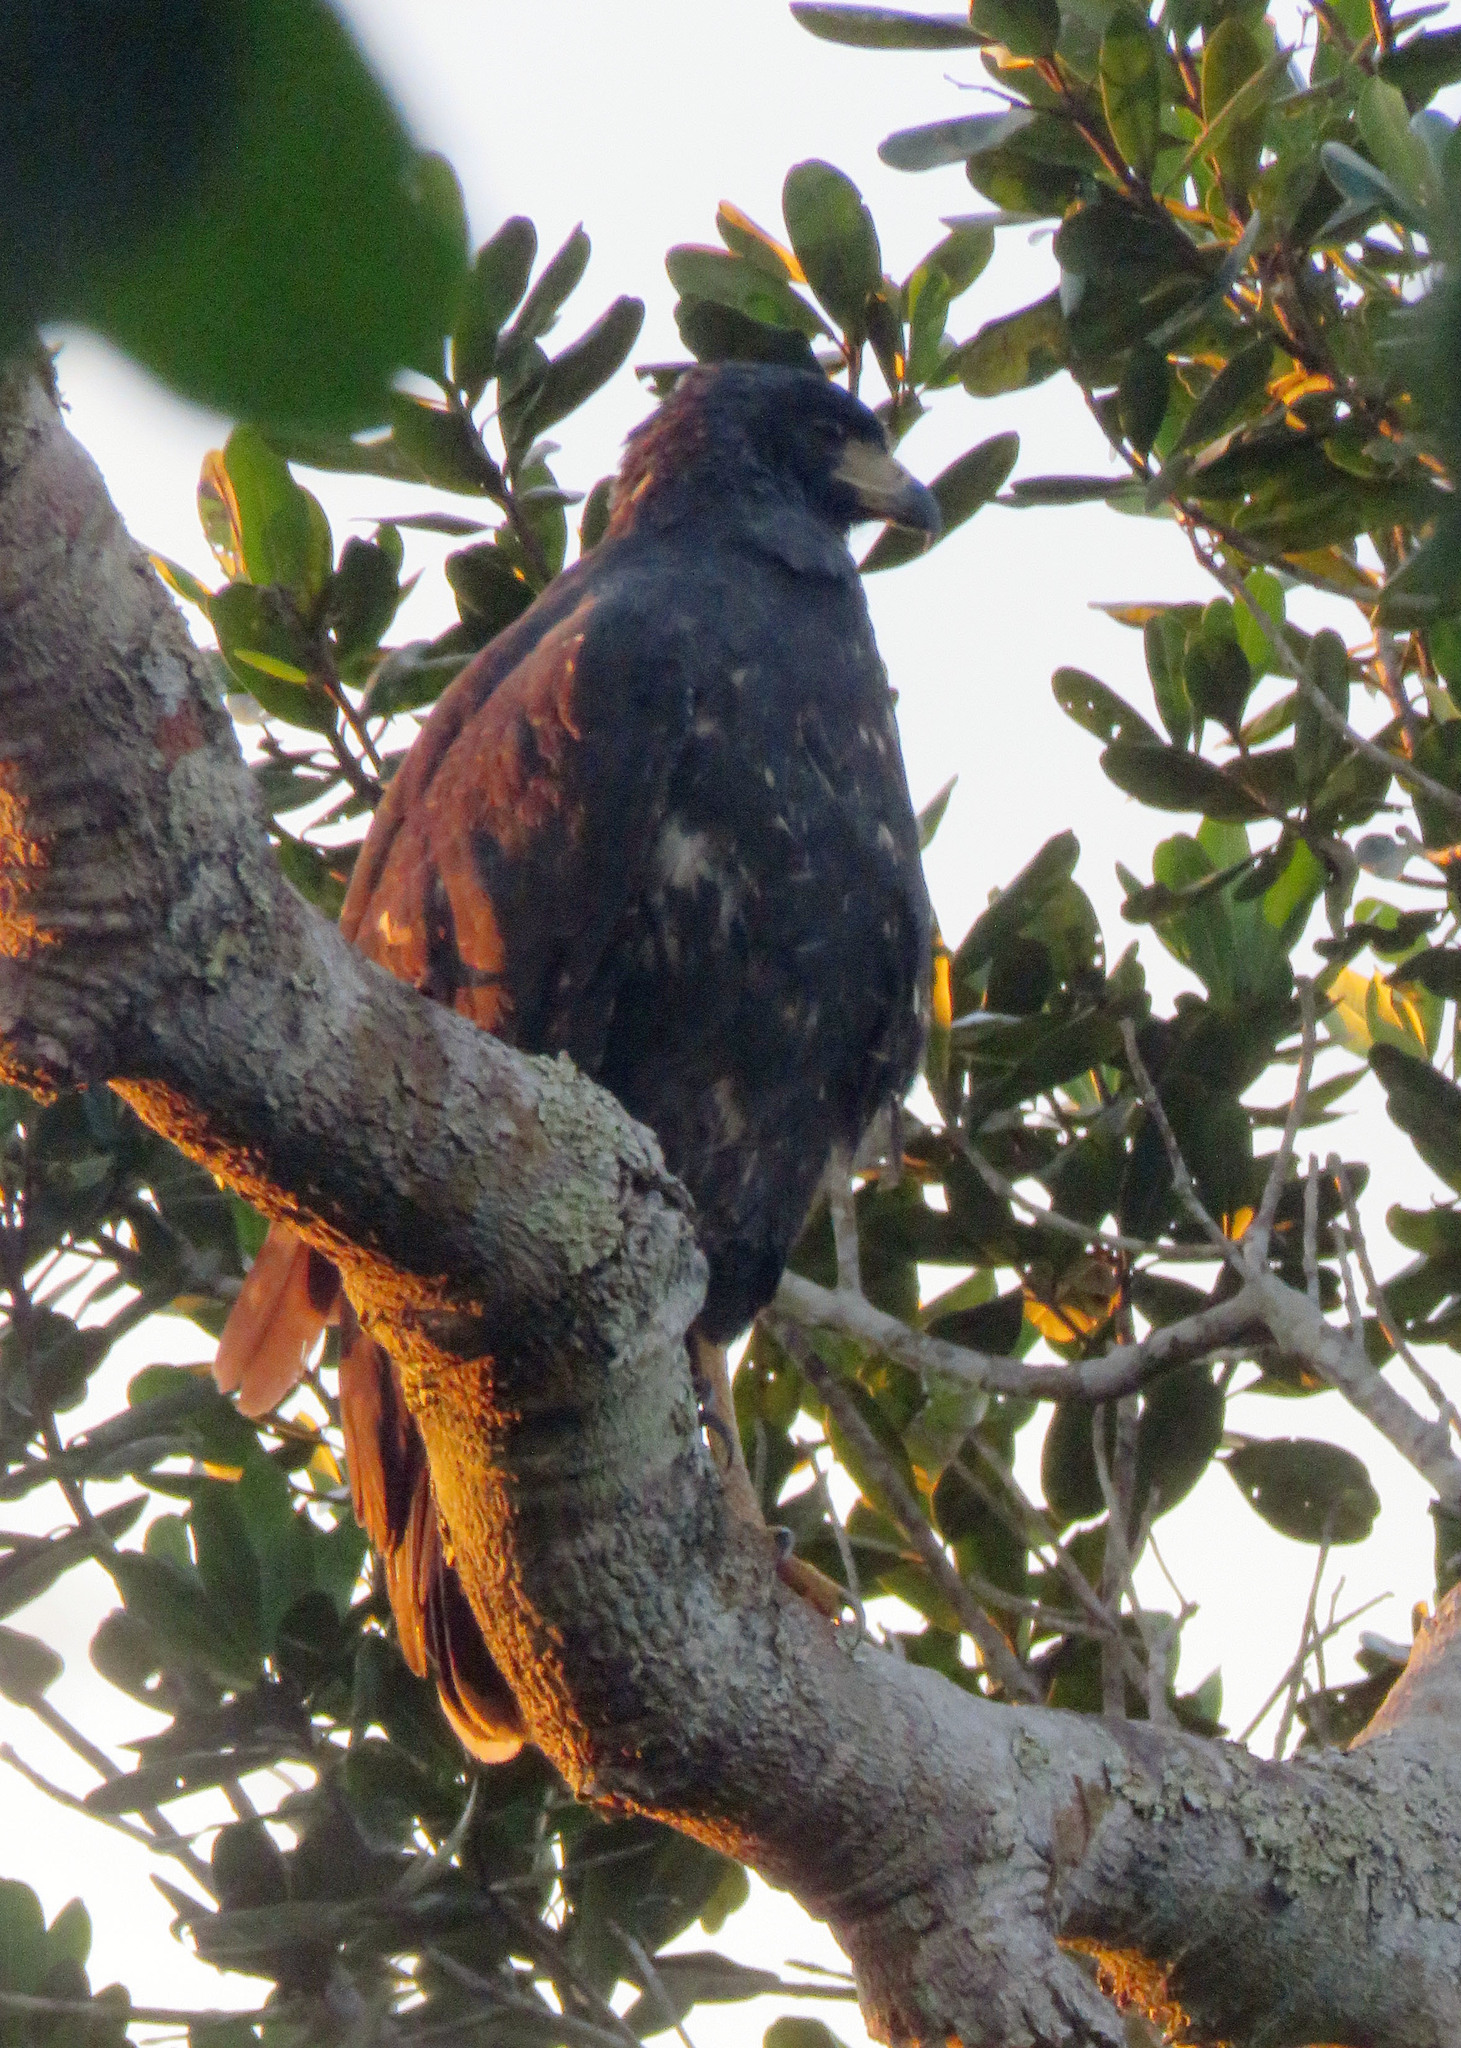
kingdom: Animalia
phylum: Chordata
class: Aves
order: Accipitriformes
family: Accipitridae
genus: Buteogallus
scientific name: Buteogallus urubitinga
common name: Great black hawk
